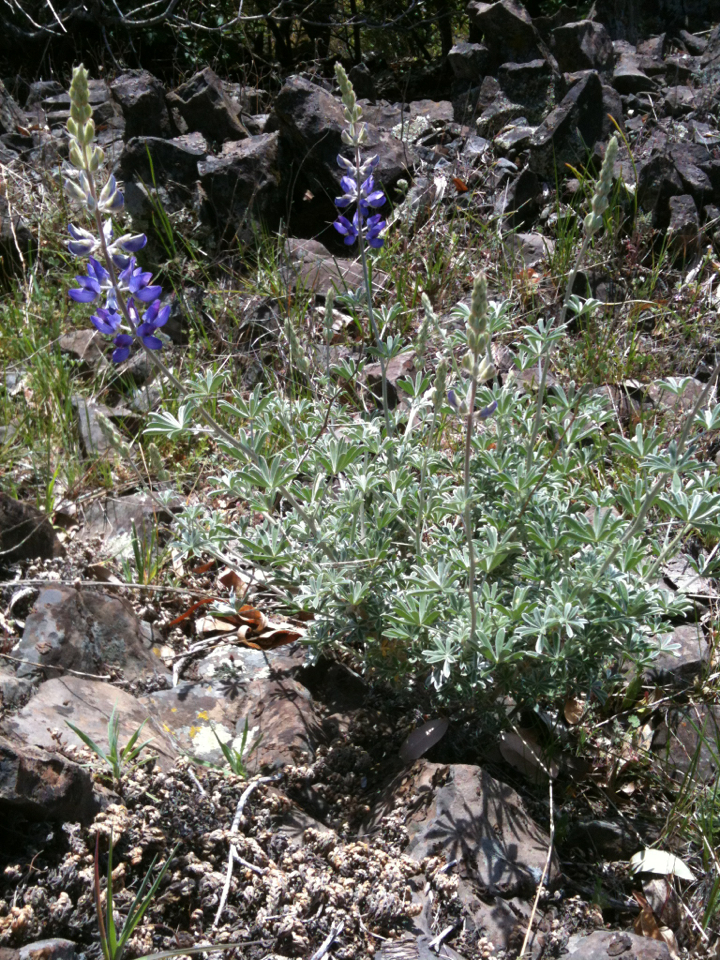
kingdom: Plantae
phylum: Tracheophyta
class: Magnoliopsida
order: Fabales
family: Fabaceae
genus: Lupinus
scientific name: Lupinus albifrons
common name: Foothill lupine
